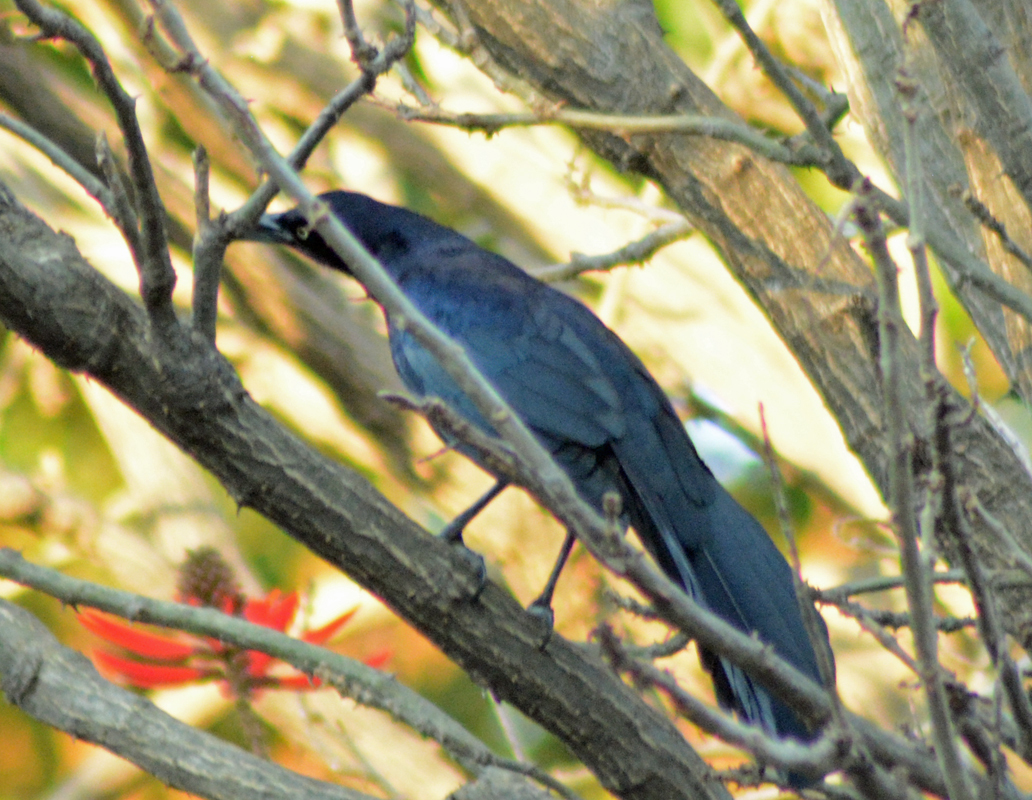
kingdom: Animalia
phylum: Chordata
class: Aves
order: Passeriformes
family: Icteridae
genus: Quiscalus
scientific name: Quiscalus mexicanus
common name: Great-tailed grackle
